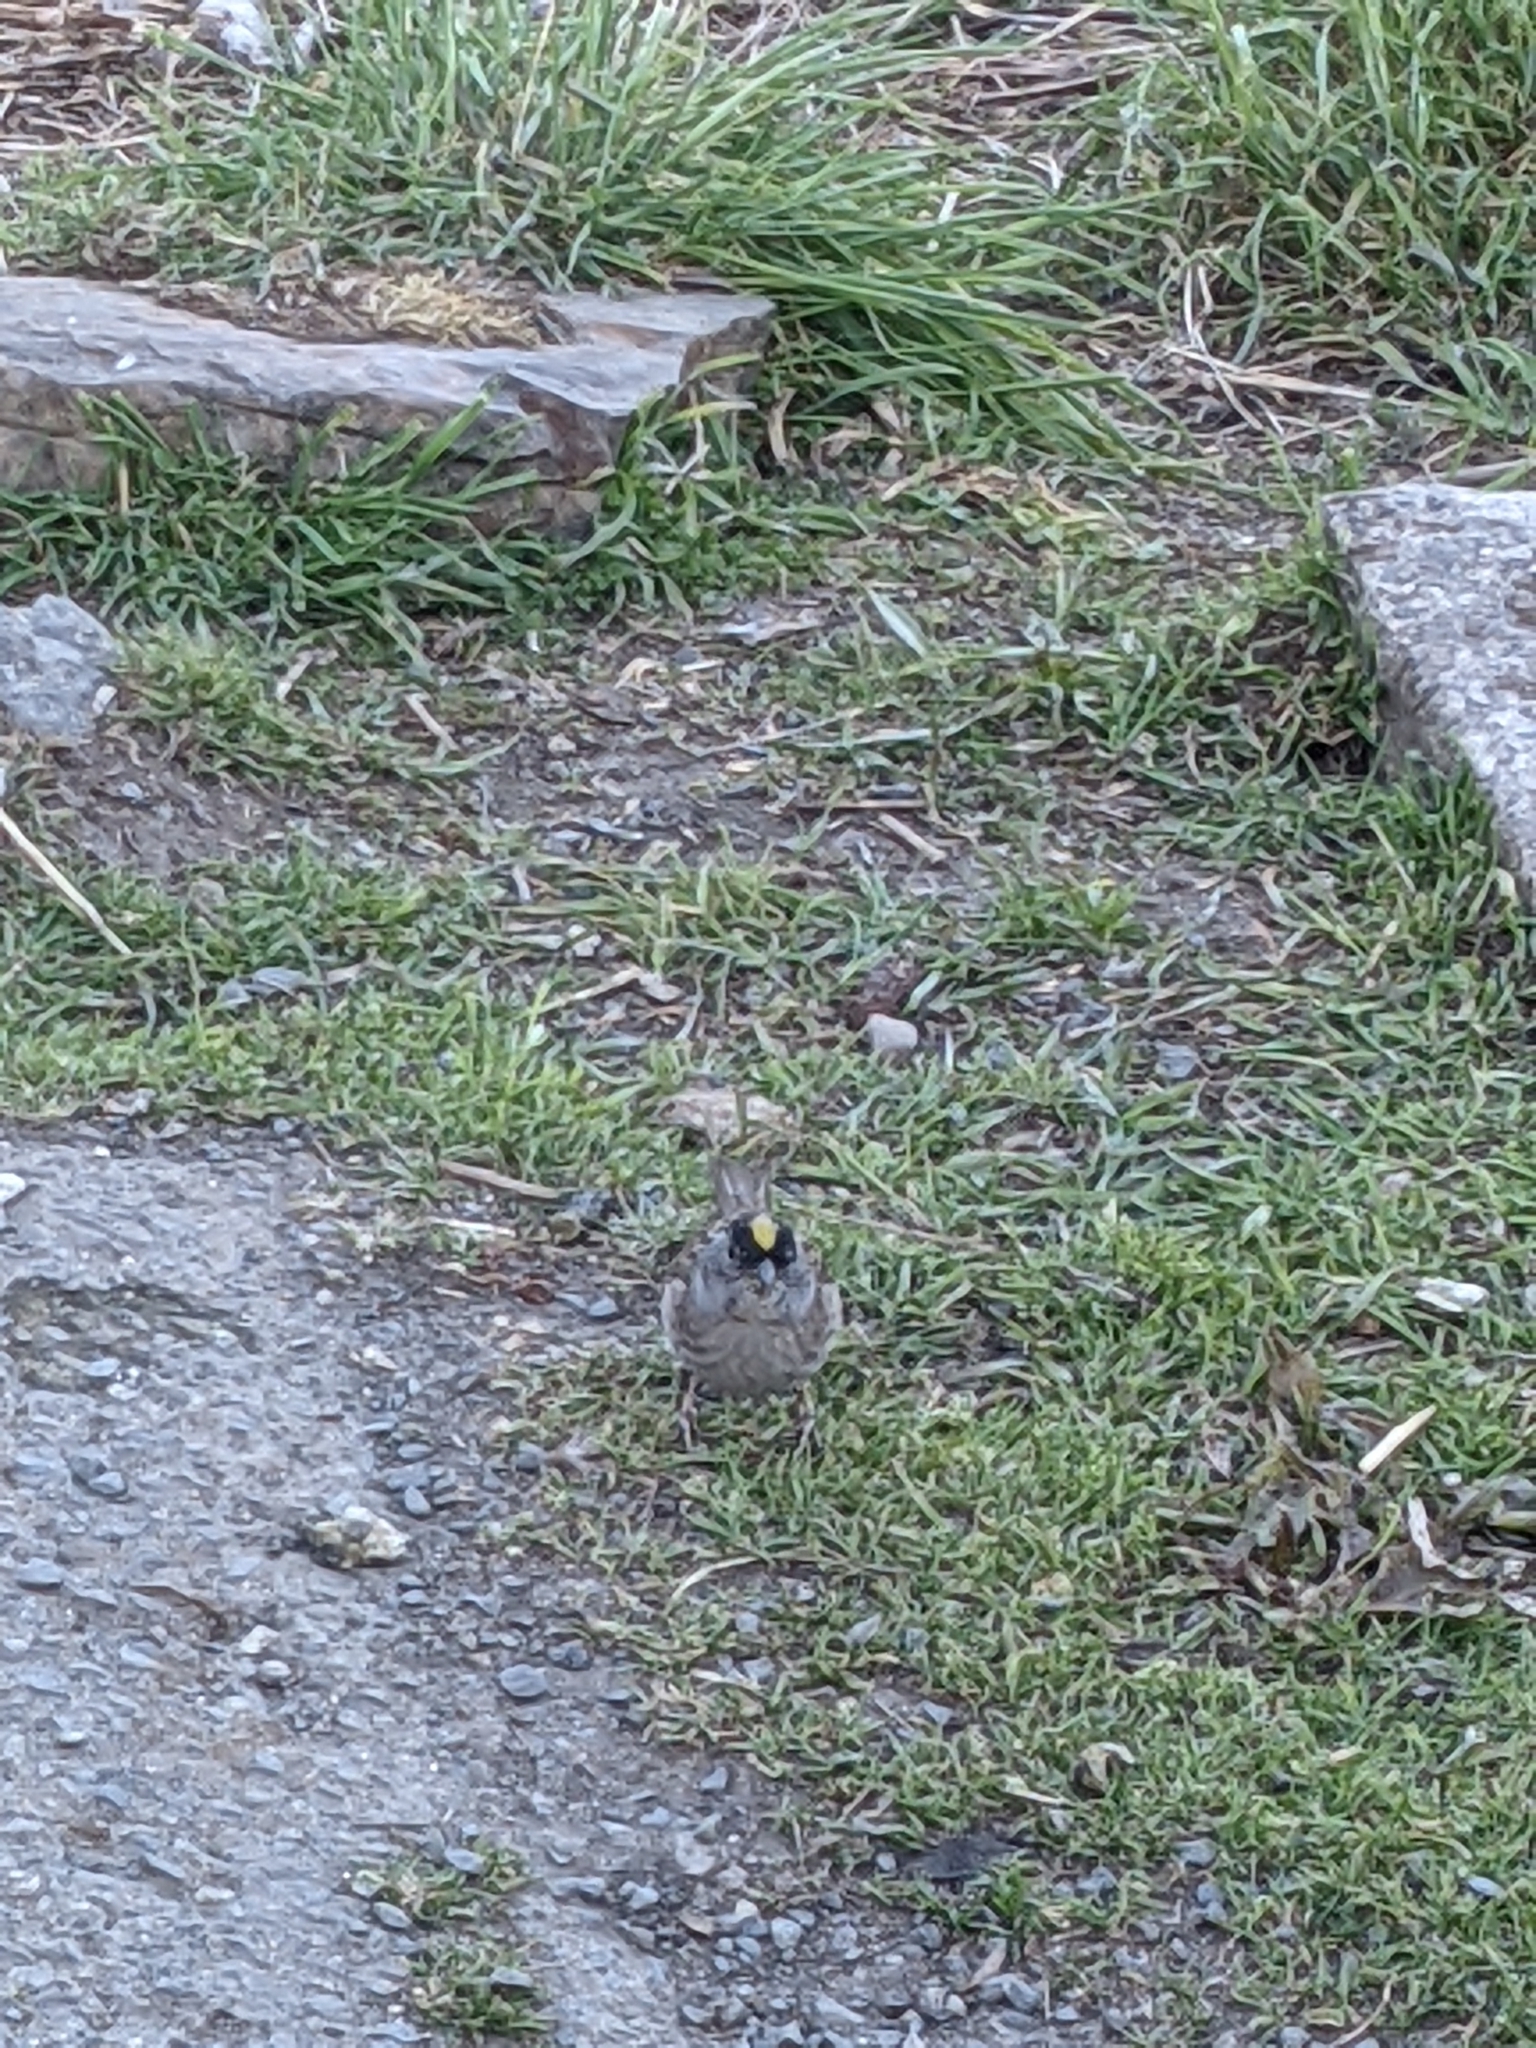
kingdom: Animalia
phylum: Chordata
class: Aves
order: Passeriformes
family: Passerellidae
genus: Zonotrichia
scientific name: Zonotrichia atricapilla
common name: Golden-crowned sparrow
